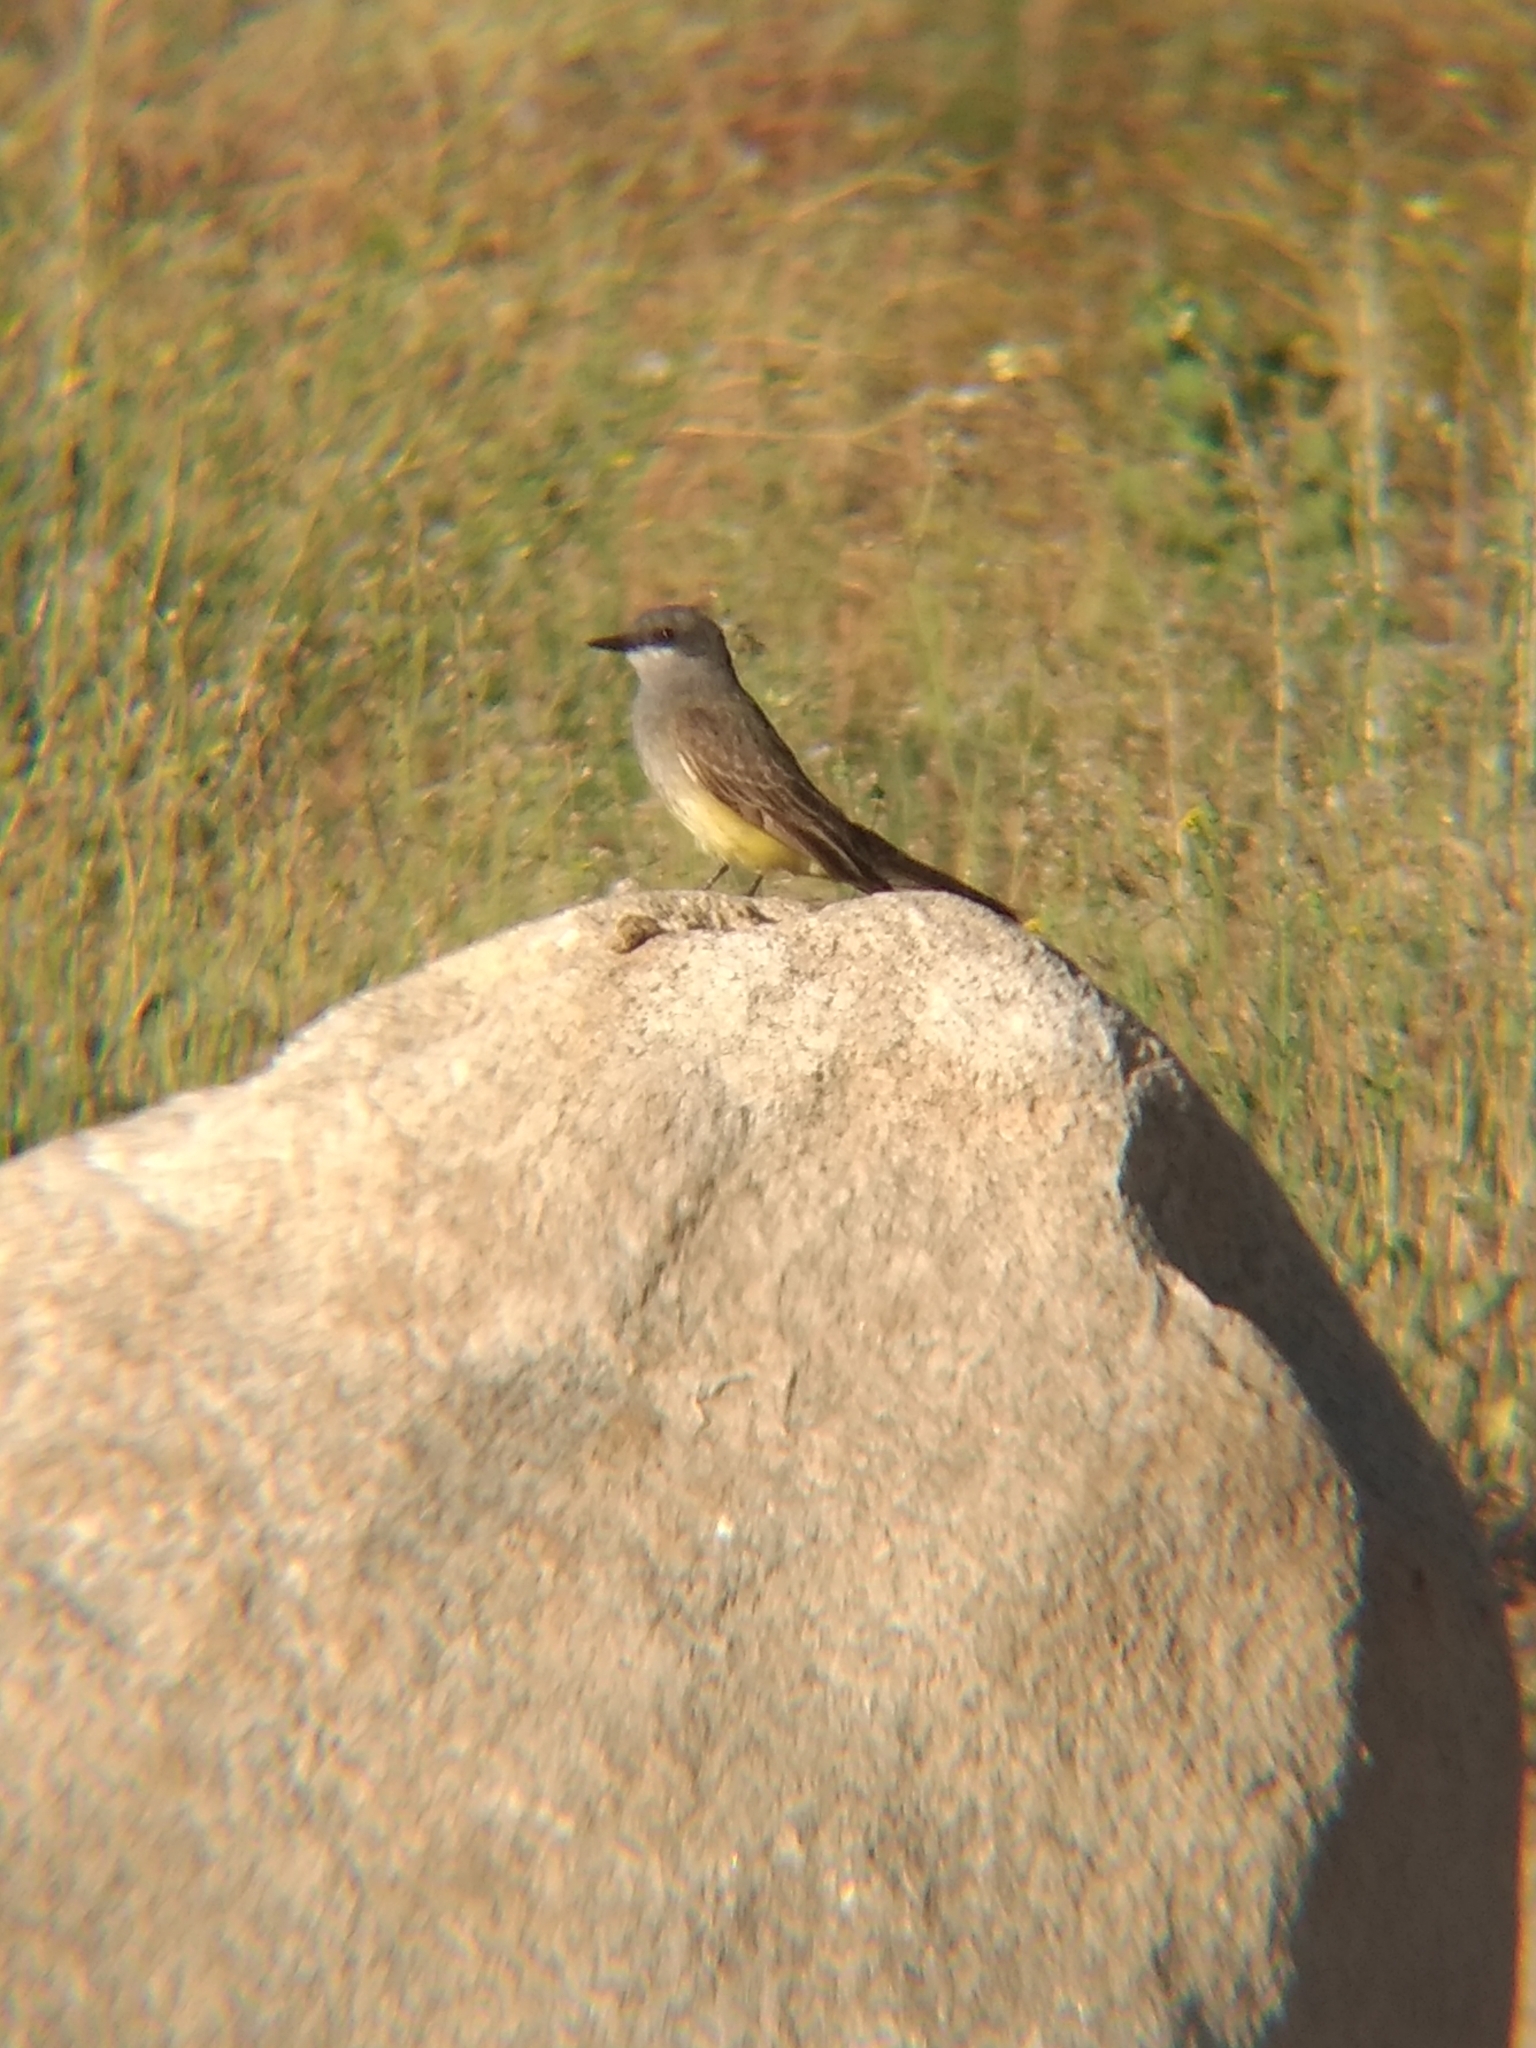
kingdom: Animalia
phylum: Chordata
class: Aves
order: Passeriformes
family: Tyrannidae
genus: Tyrannus
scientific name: Tyrannus vociferans
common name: Cassin's kingbird
